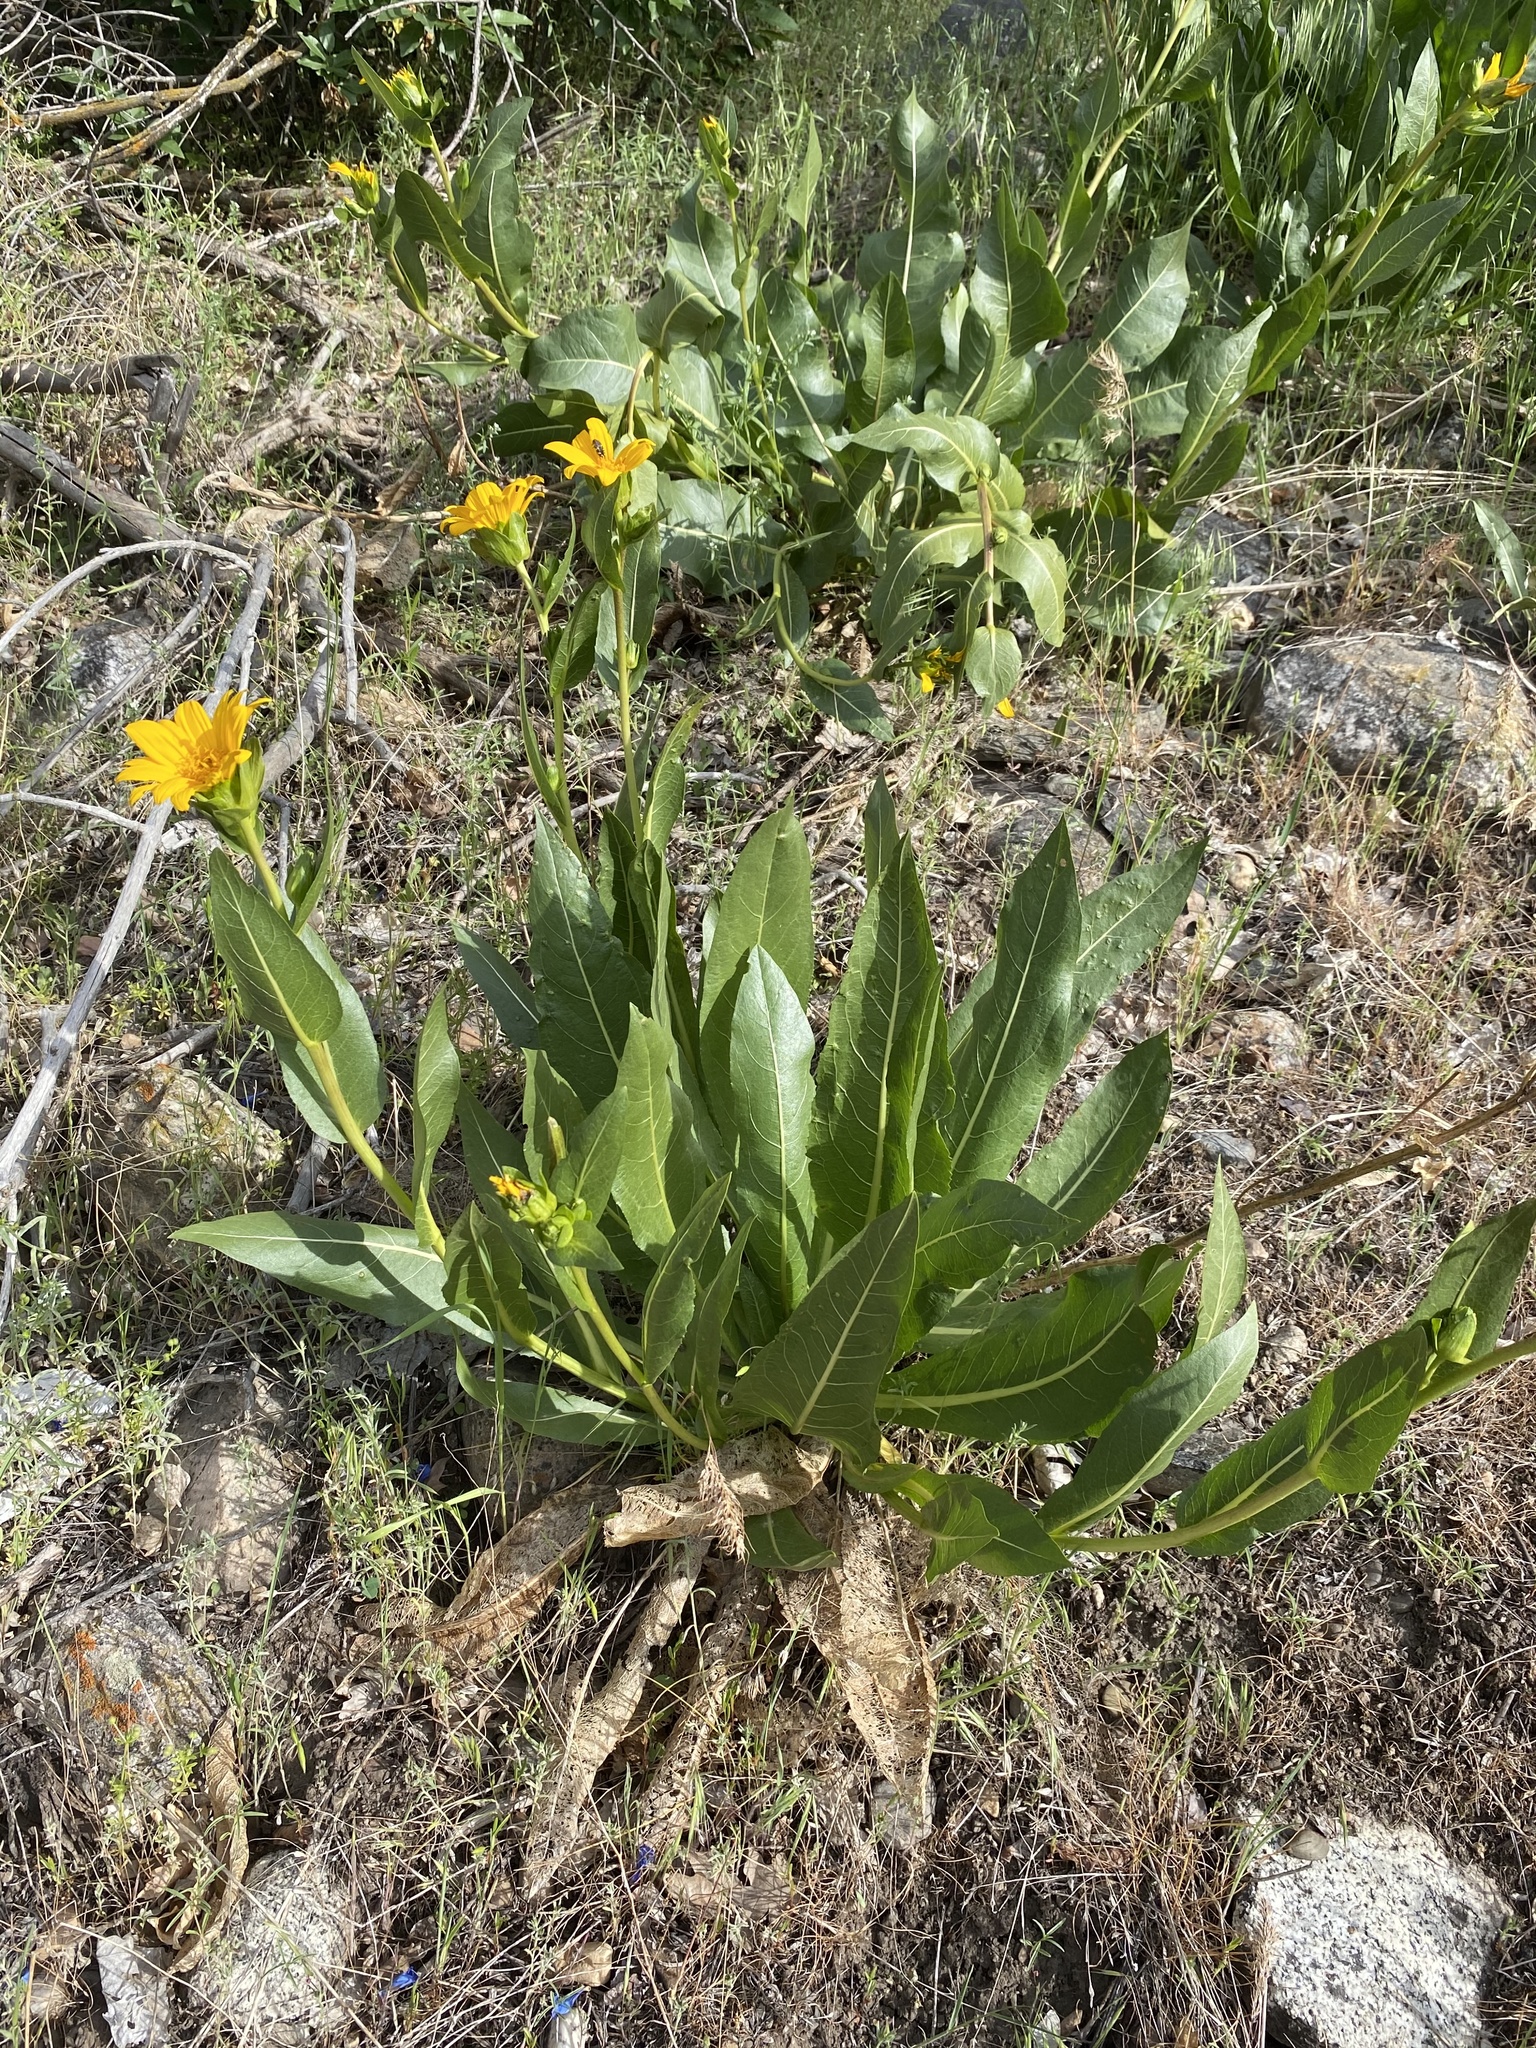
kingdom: Plantae
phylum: Tracheophyta
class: Magnoliopsida
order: Asterales
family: Asteraceae
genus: Wyethia
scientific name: Wyethia amplexicaulis
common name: Northern mule's-ears
